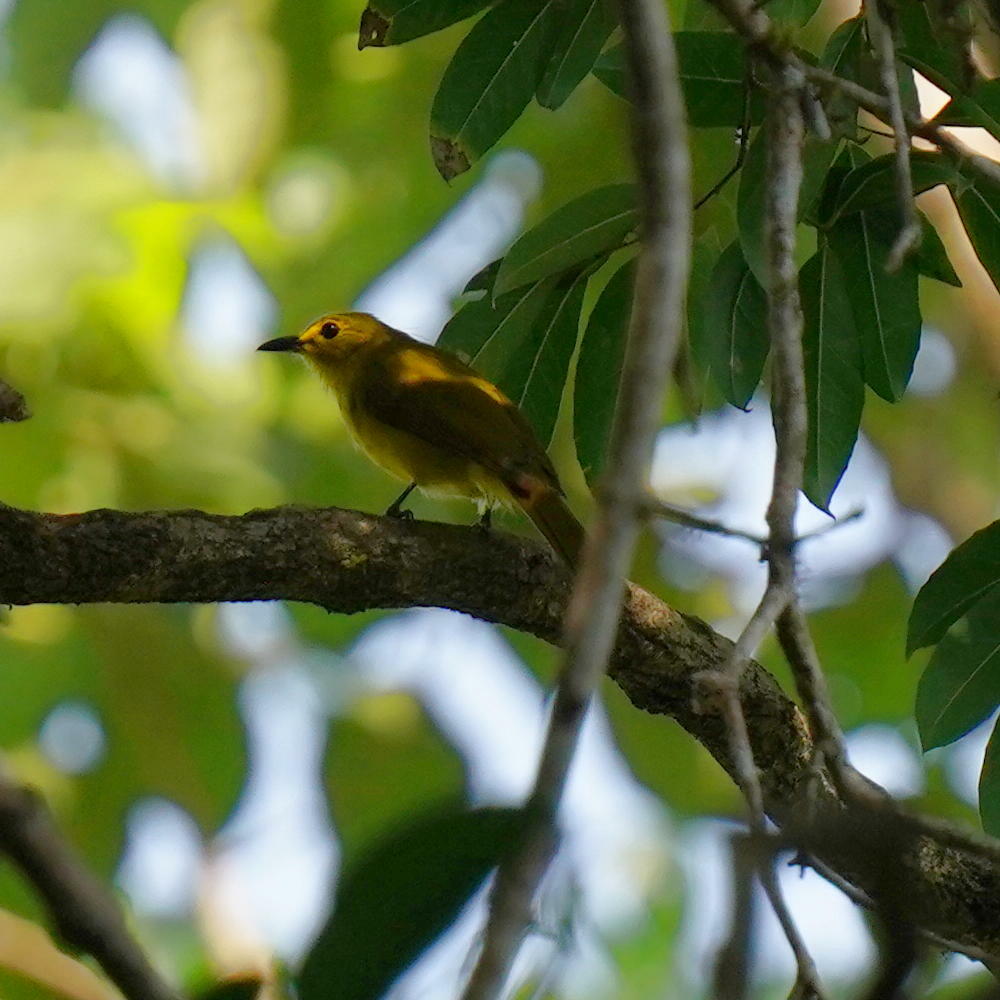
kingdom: Animalia
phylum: Chordata
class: Aves
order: Passeriformes
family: Pycnonotidae
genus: Acritillas
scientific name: Acritillas indica
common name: Yellow-browed bulbul
